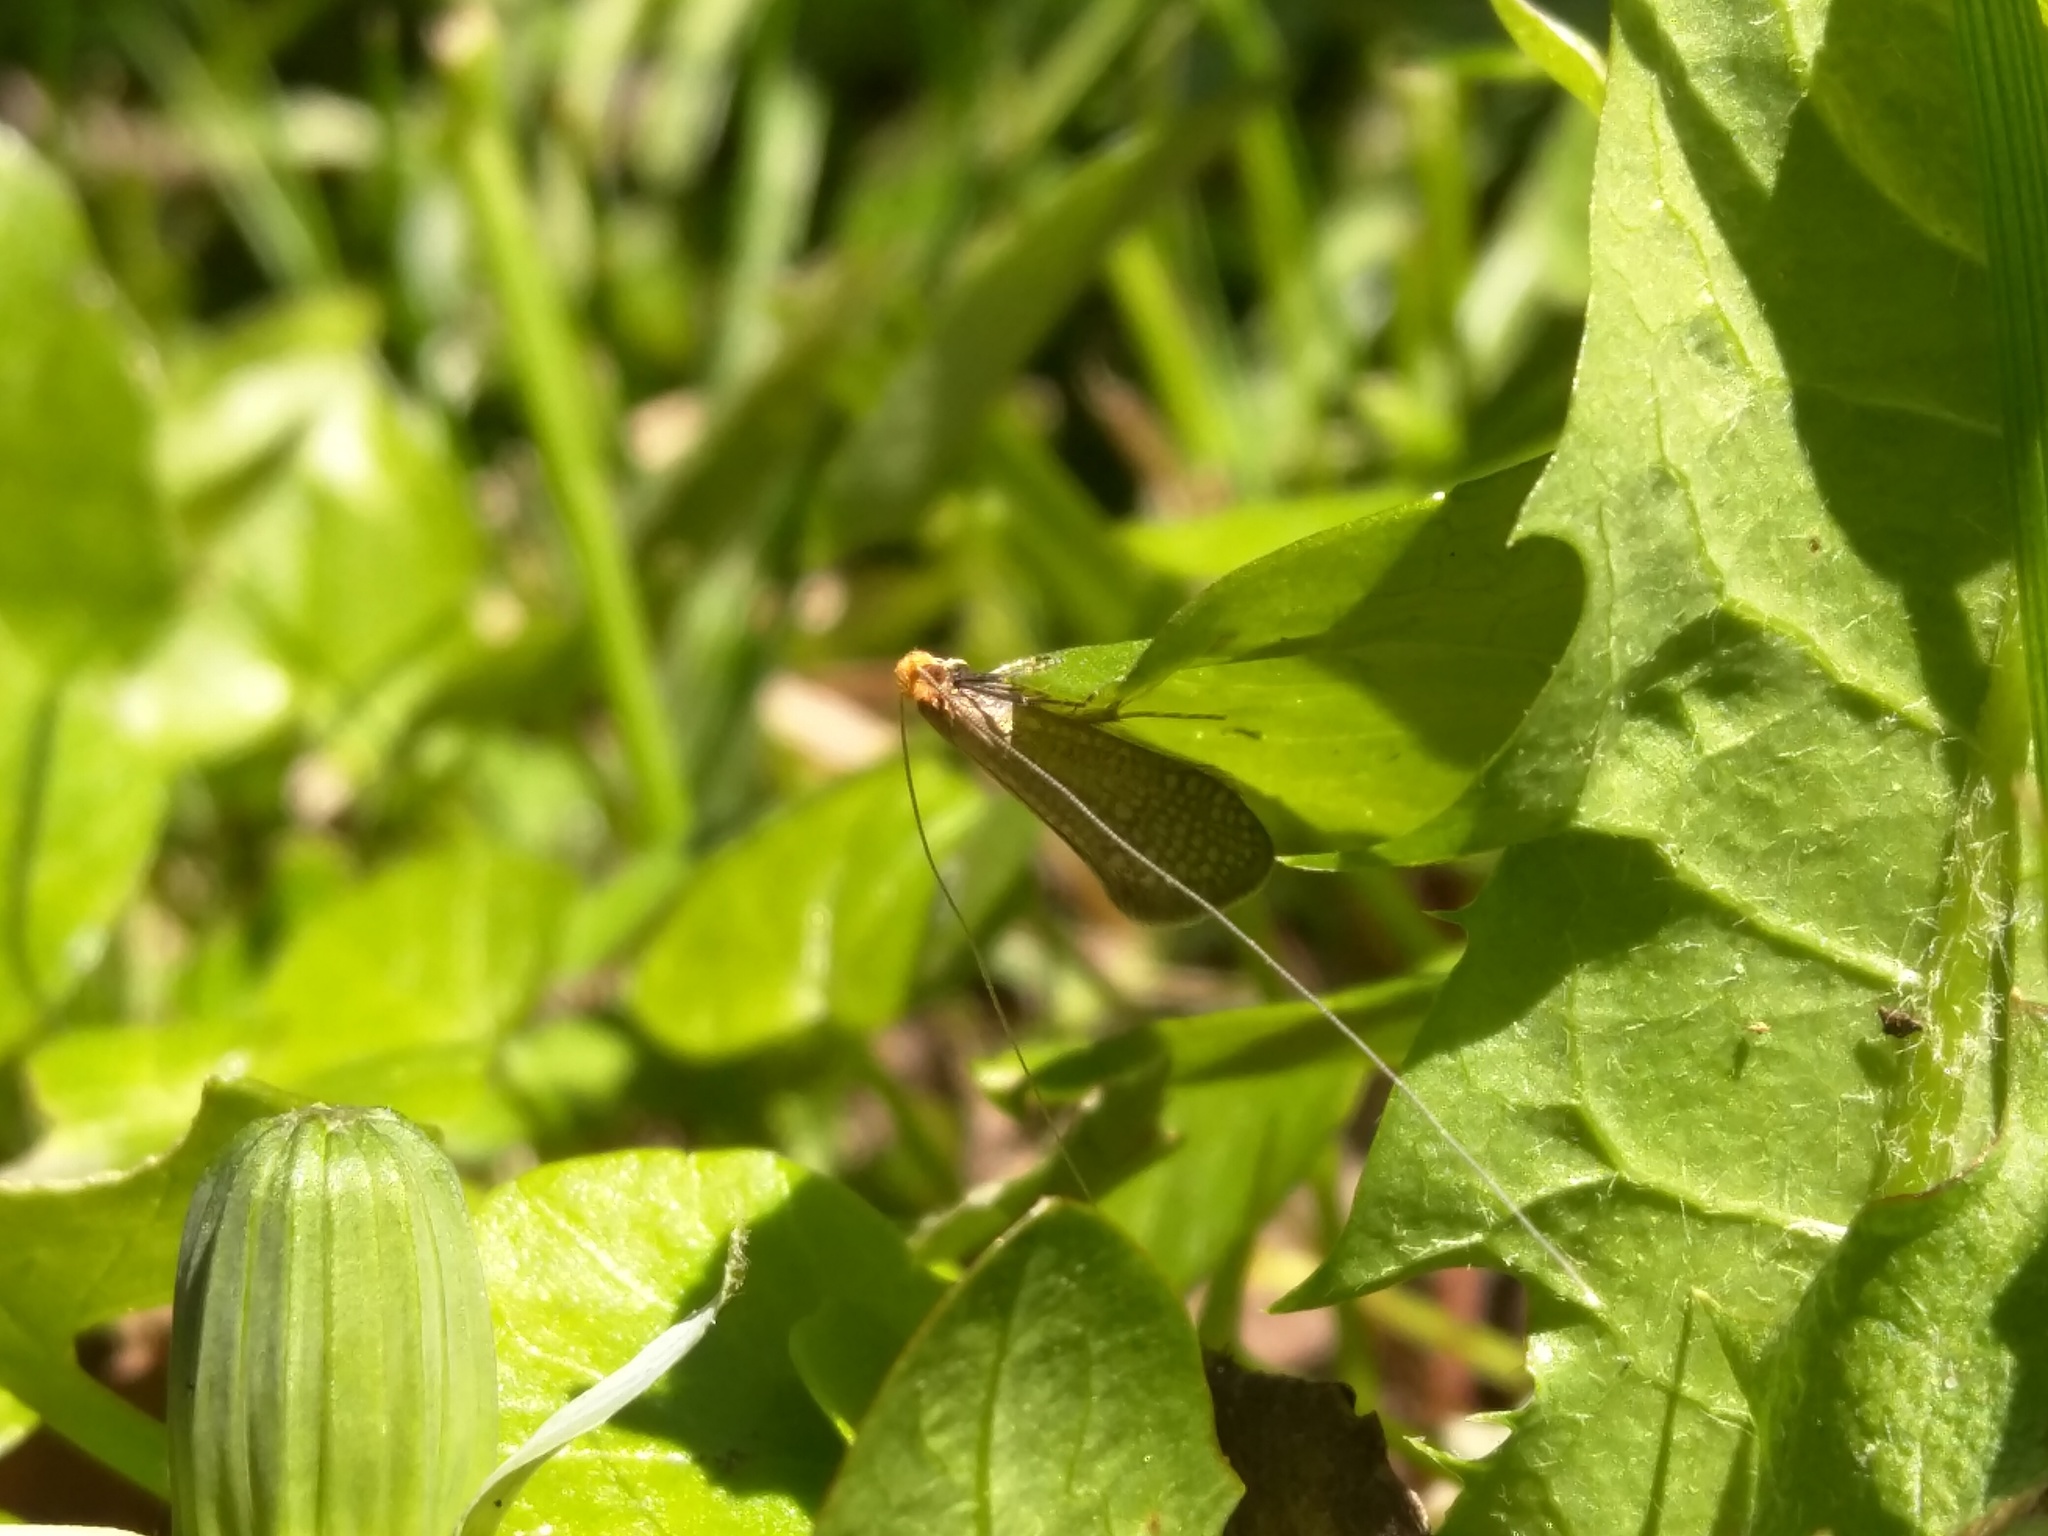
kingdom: Animalia
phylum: Arthropoda
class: Insecta
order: Lepidoptera
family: Adelidae
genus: Nematopogon
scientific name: Nematopogon adansoniella
